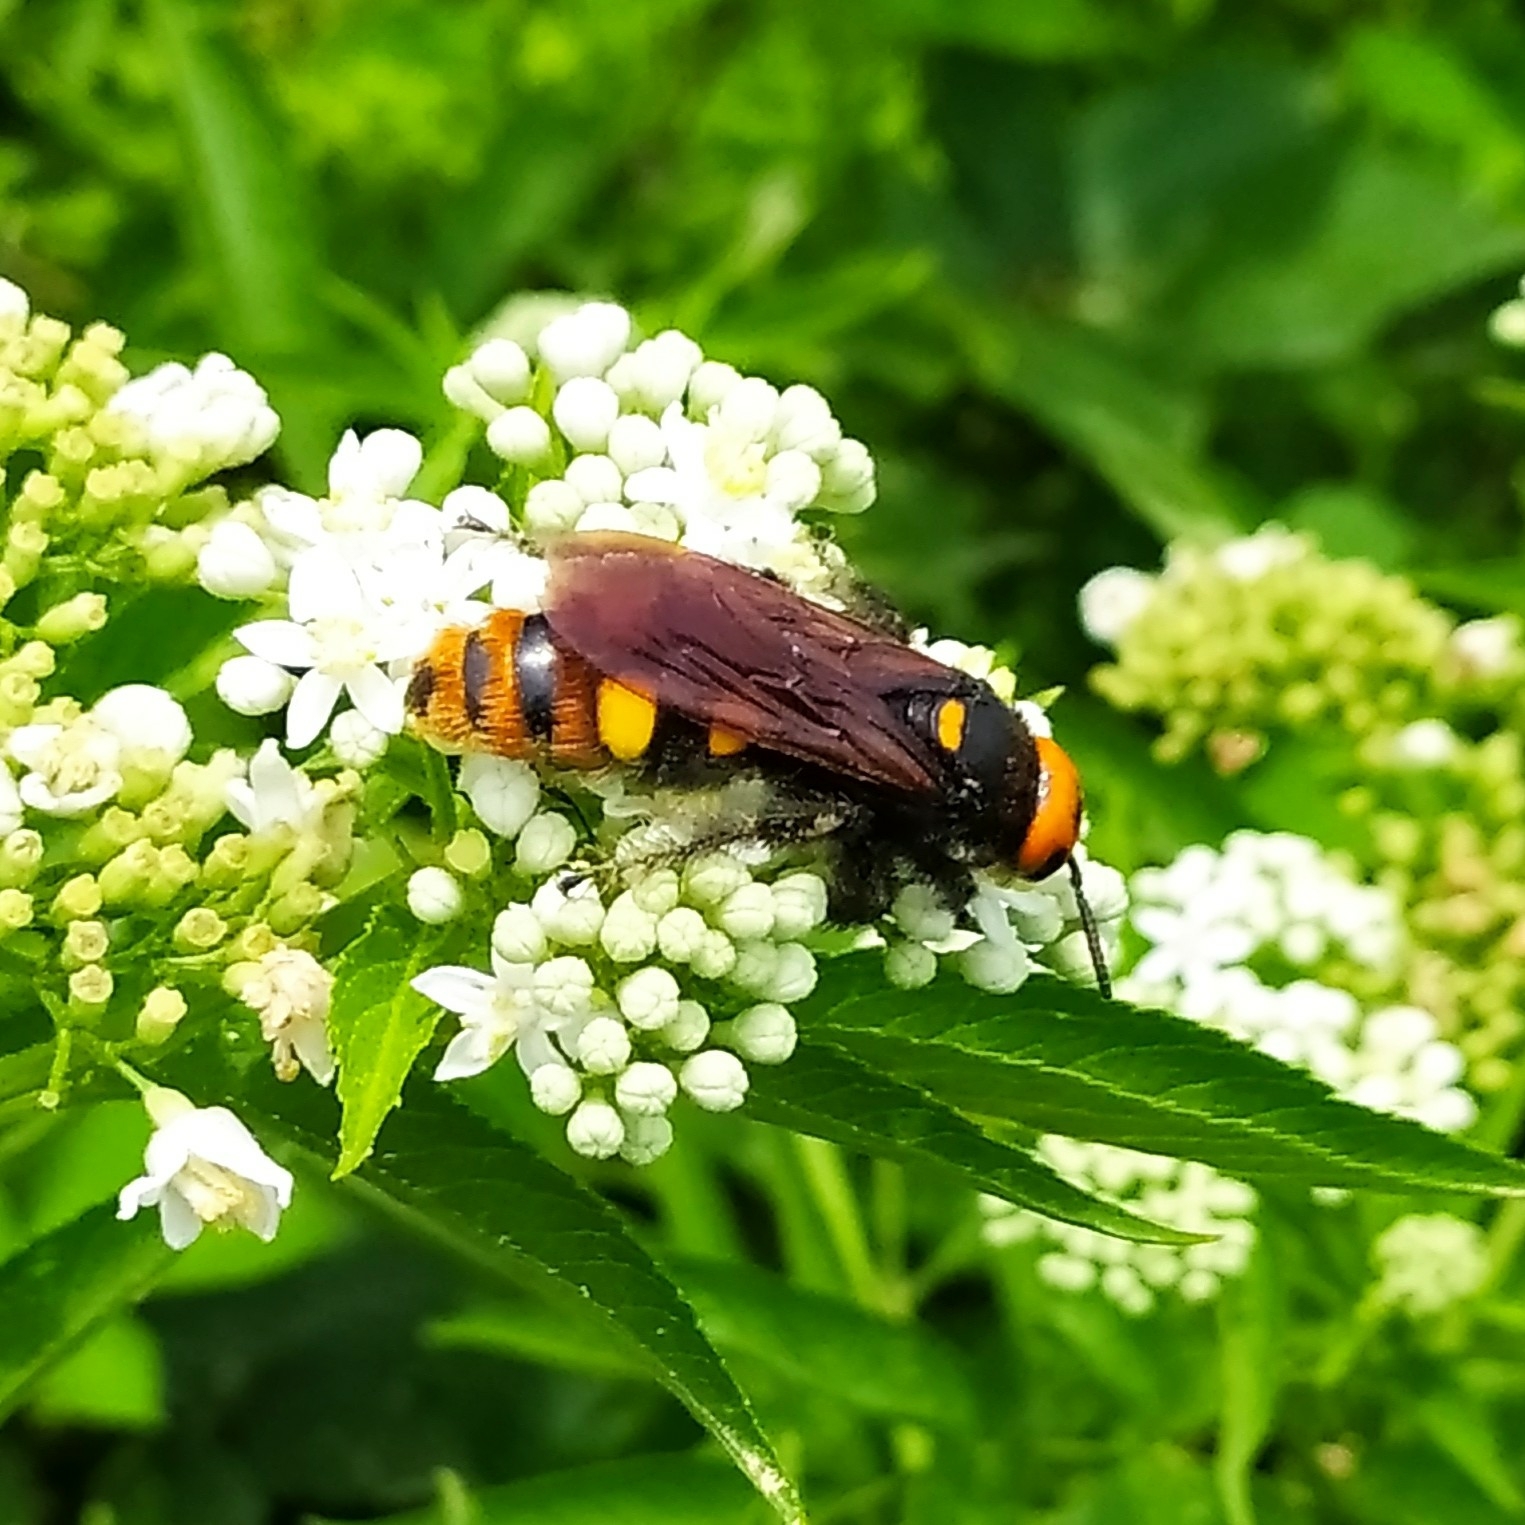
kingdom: Animalia
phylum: Arthropoda
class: Insecta
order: Hymenoptera
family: Scoliidae
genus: Megascolia
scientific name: Megascolia maculata
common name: Mammoth wasp
